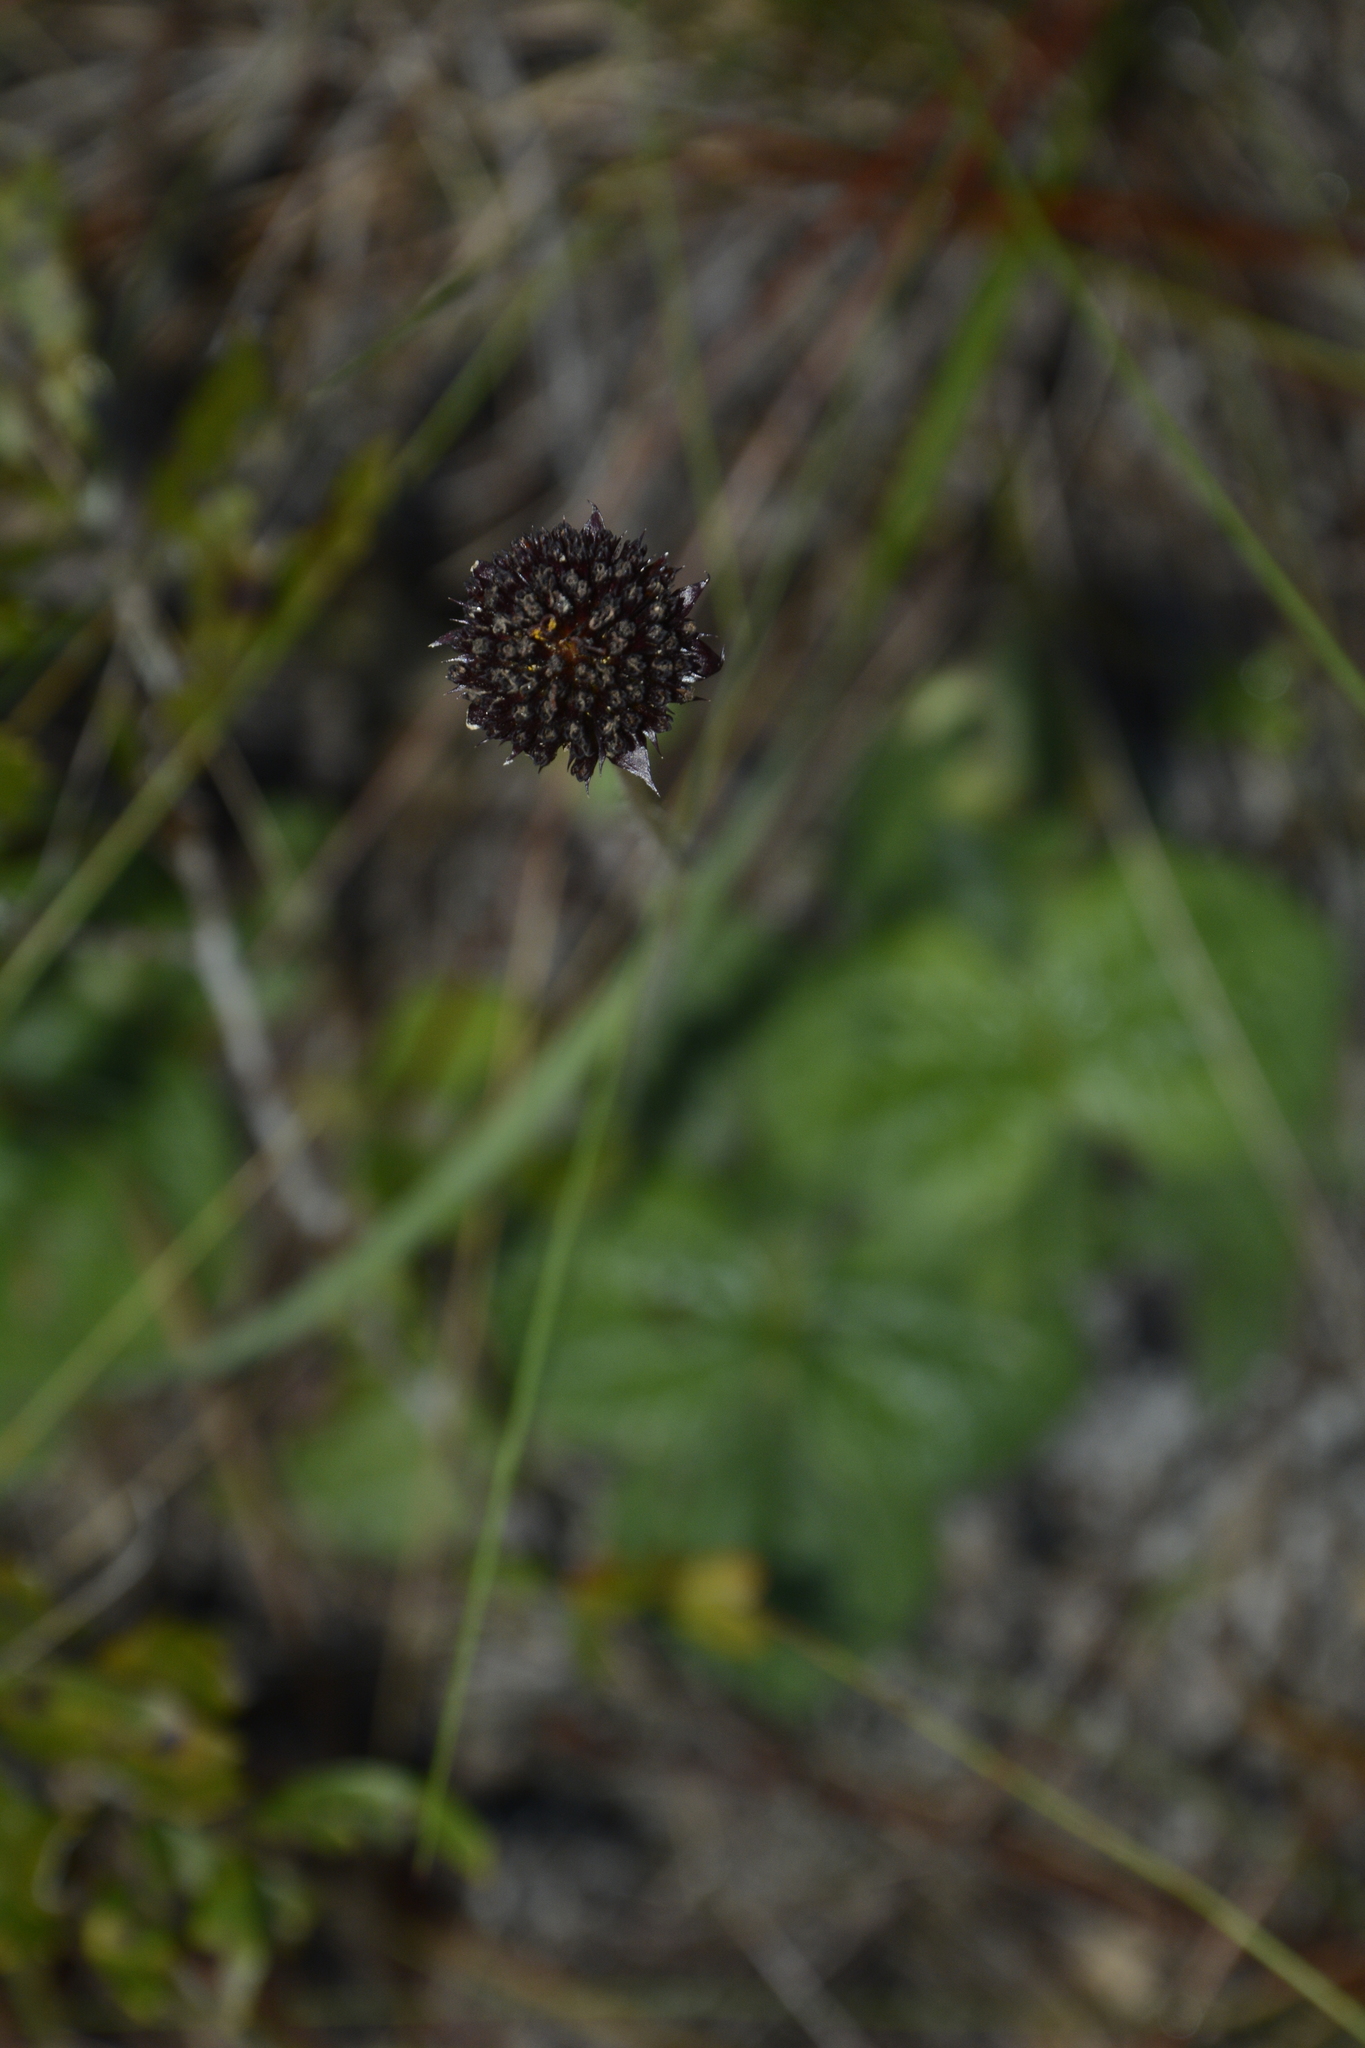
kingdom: Plantae
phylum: Tracheophyta
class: Magnoliopsida
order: Asterales
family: Asteraceae
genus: Helianthus
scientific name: Helianthus radula
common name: Pineland sunflower
